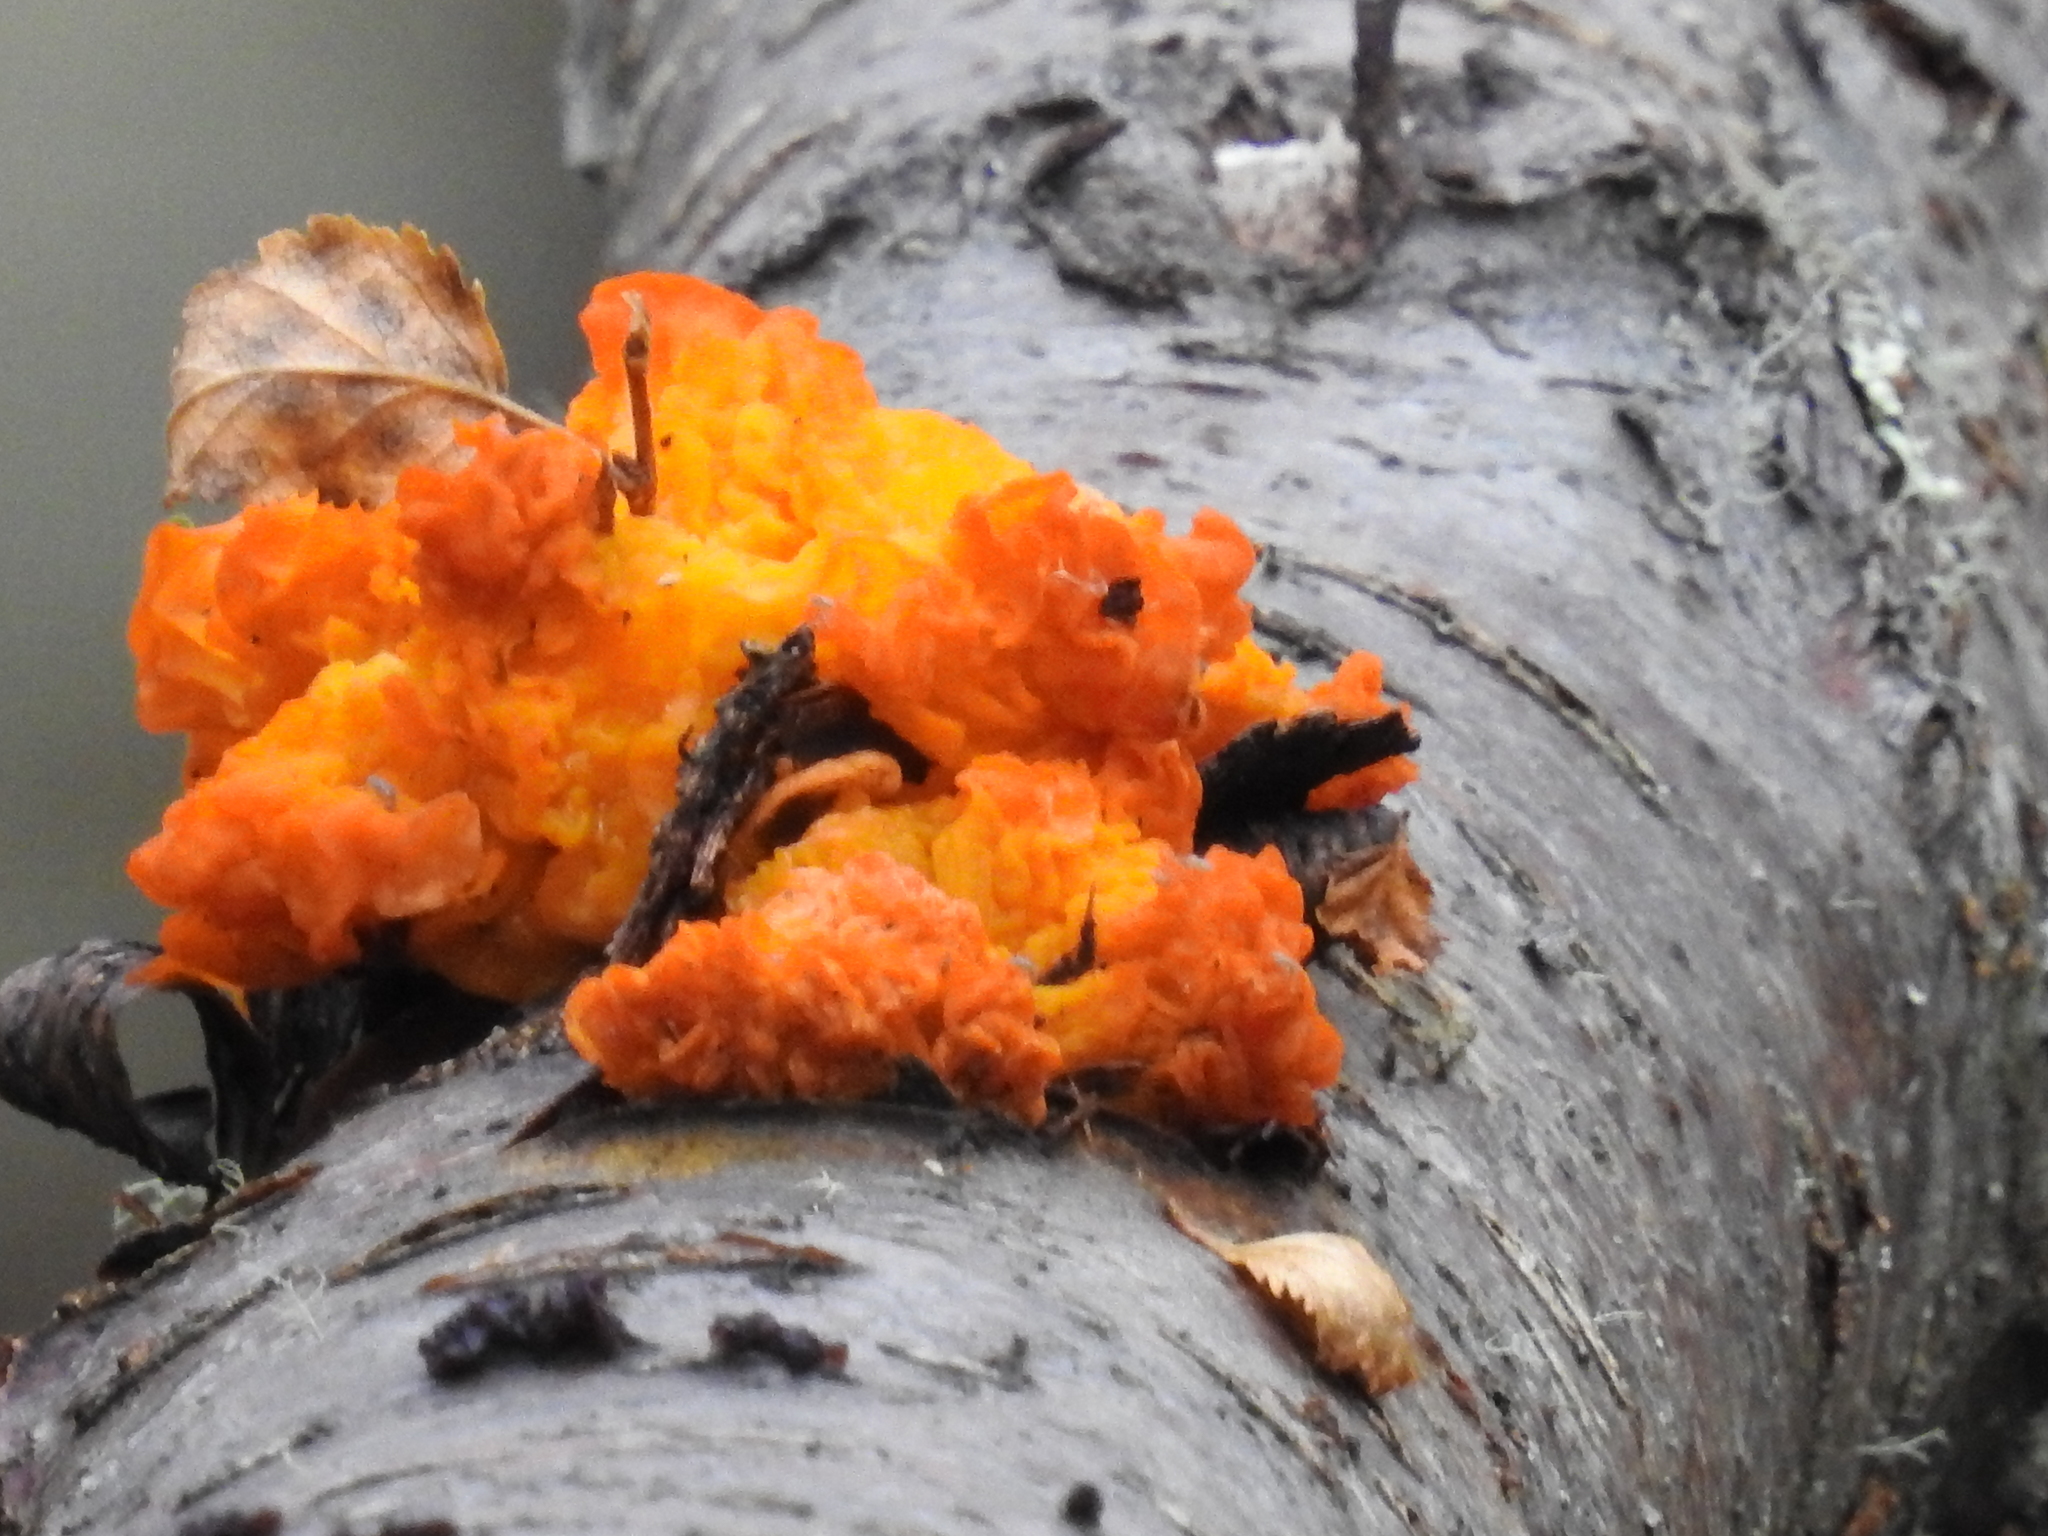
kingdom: Fungi
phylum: Basidiomycota
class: Tremellomycetes
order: Tremellales
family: Tremellaceae
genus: Tremella
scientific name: Tremella mesenterica
